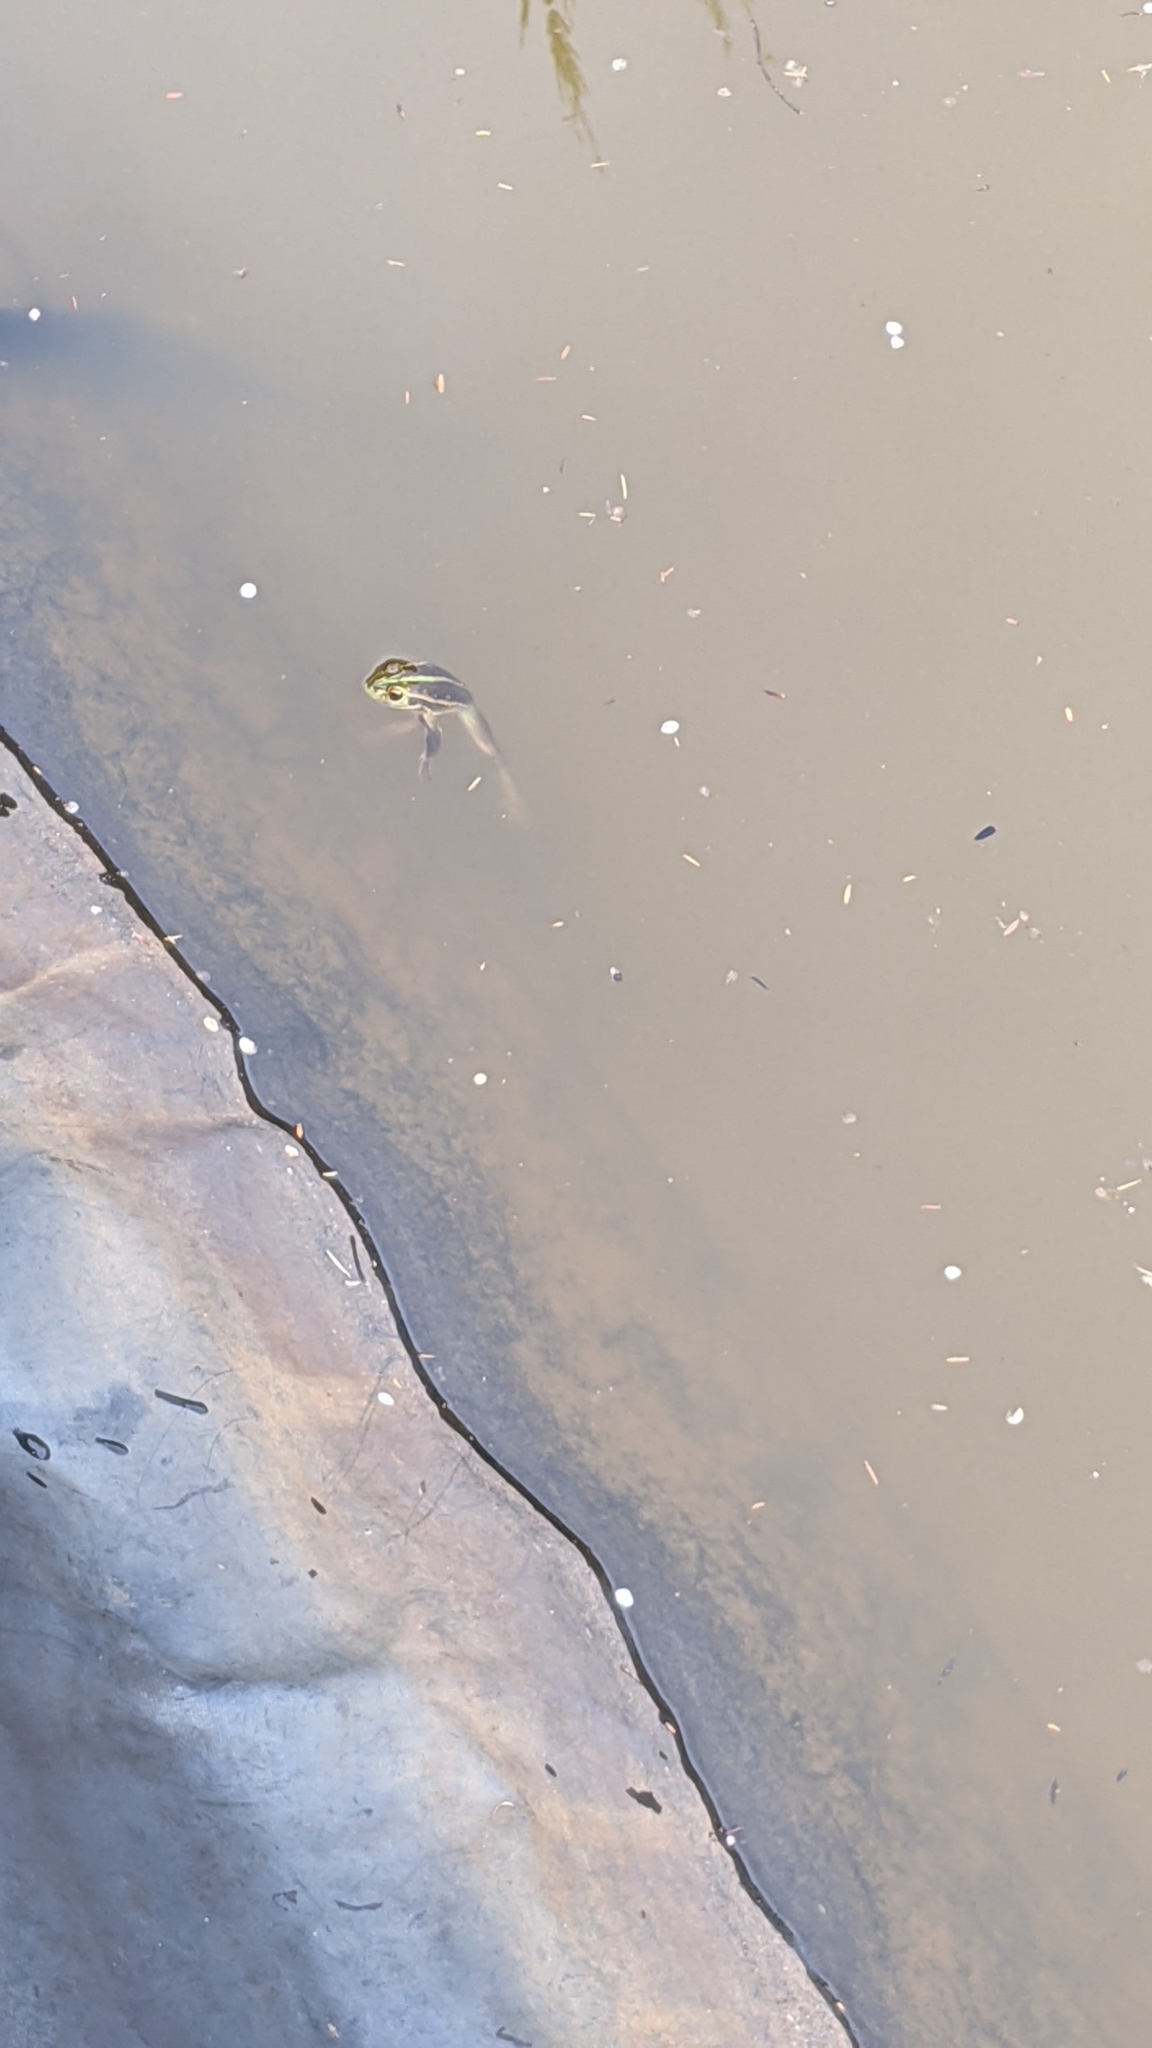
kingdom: Animalia
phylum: Chordata
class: Amphibia
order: Anura
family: Pelodryadidae
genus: Ranoidea
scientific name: Ranoidea raniformis
